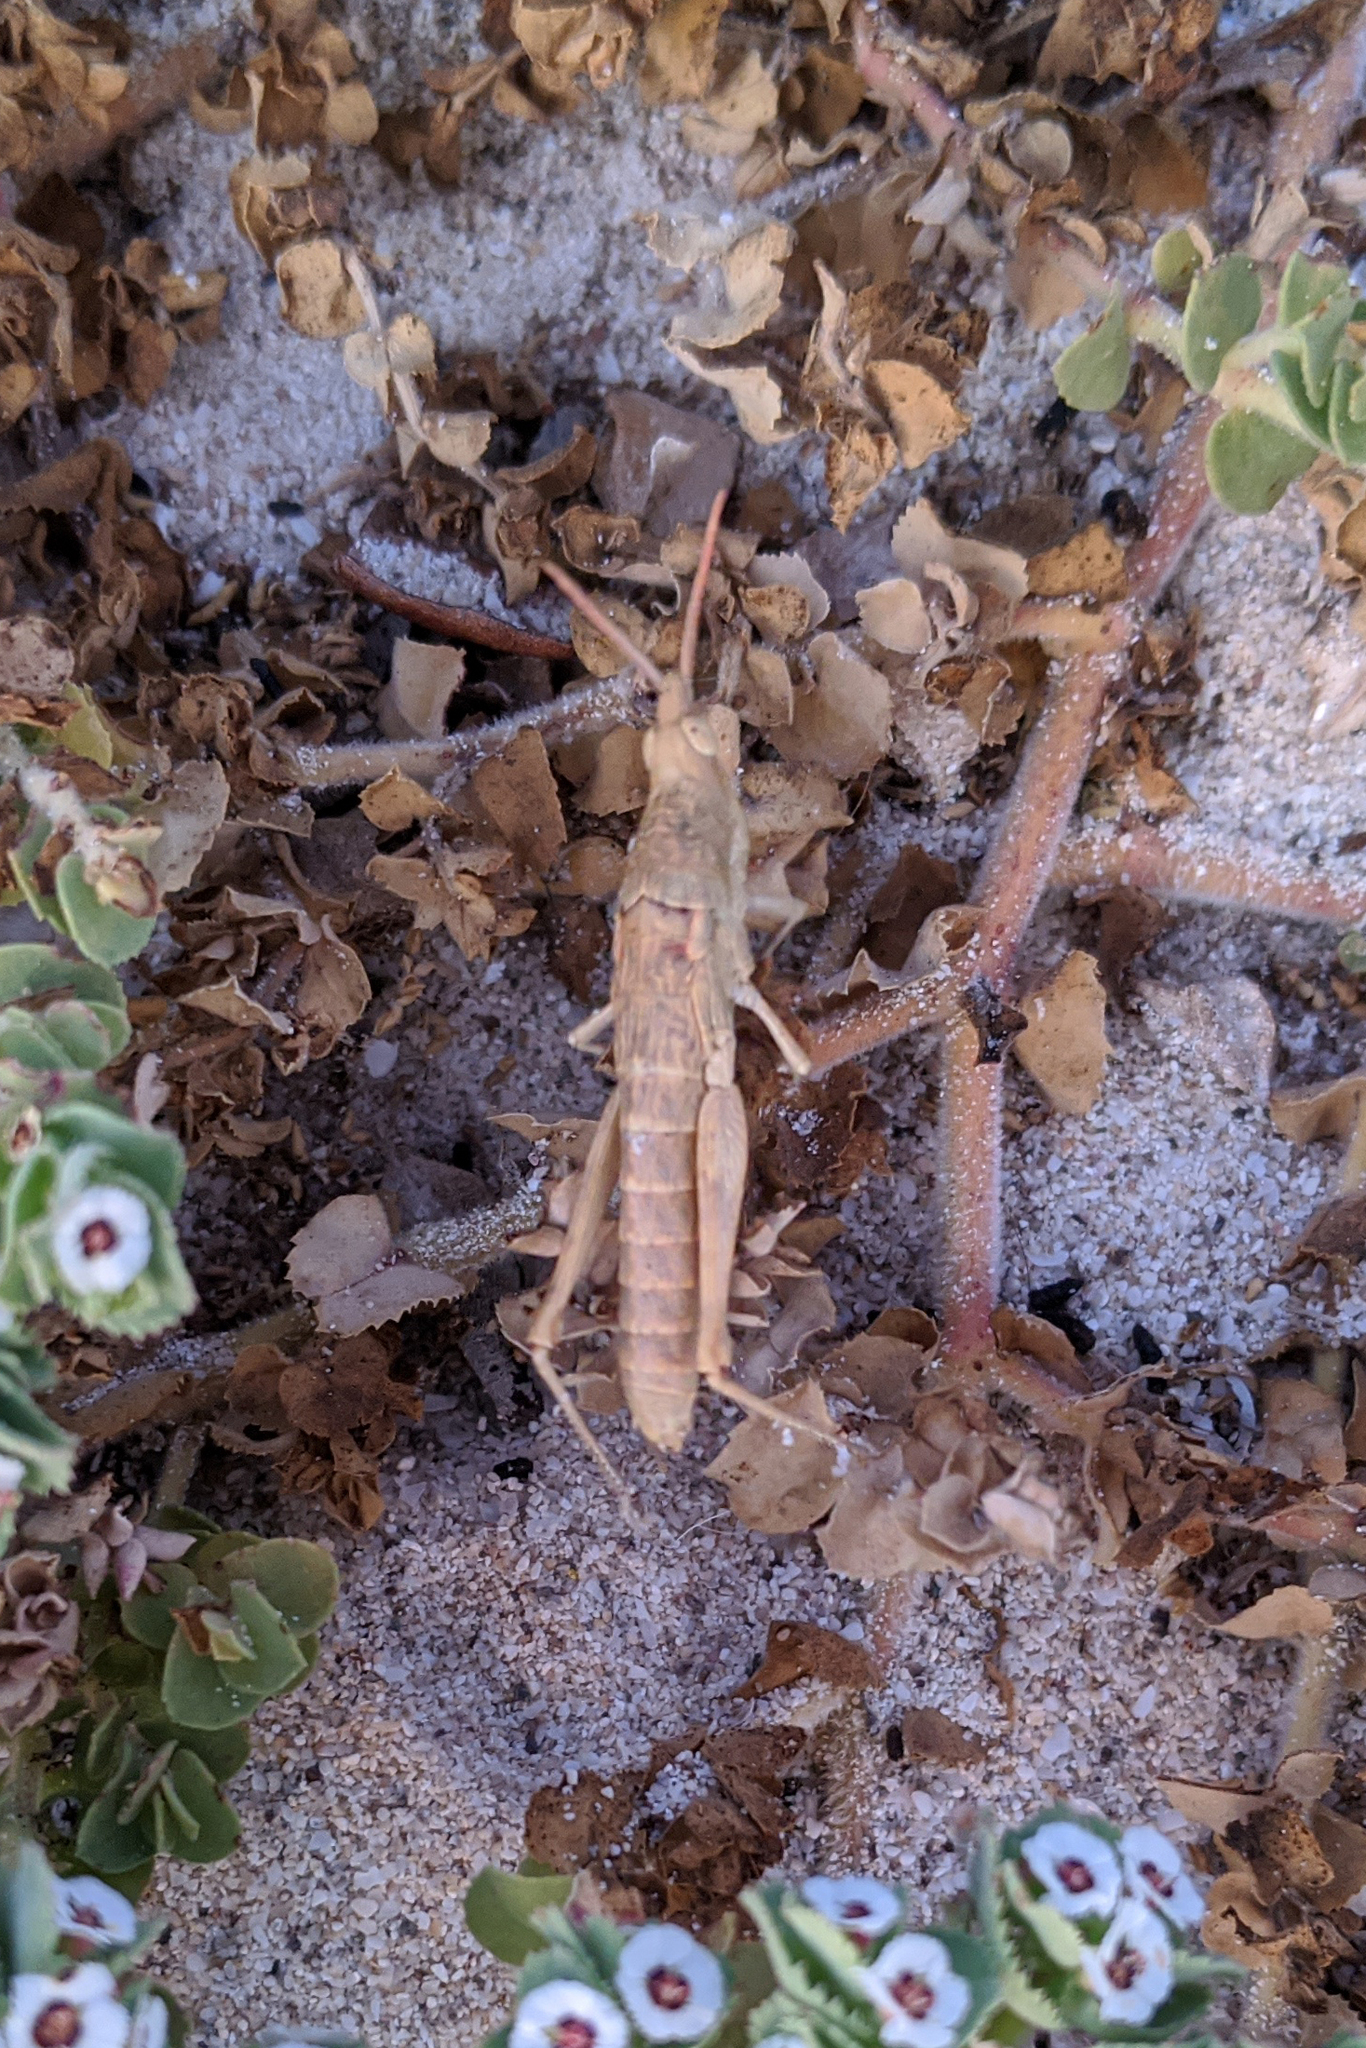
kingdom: Animalia
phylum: Arthropoda
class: Insecta
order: Orthoptera
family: Pyrgomorphidae
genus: Ichthiacris
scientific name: Ichthiacris rehni
